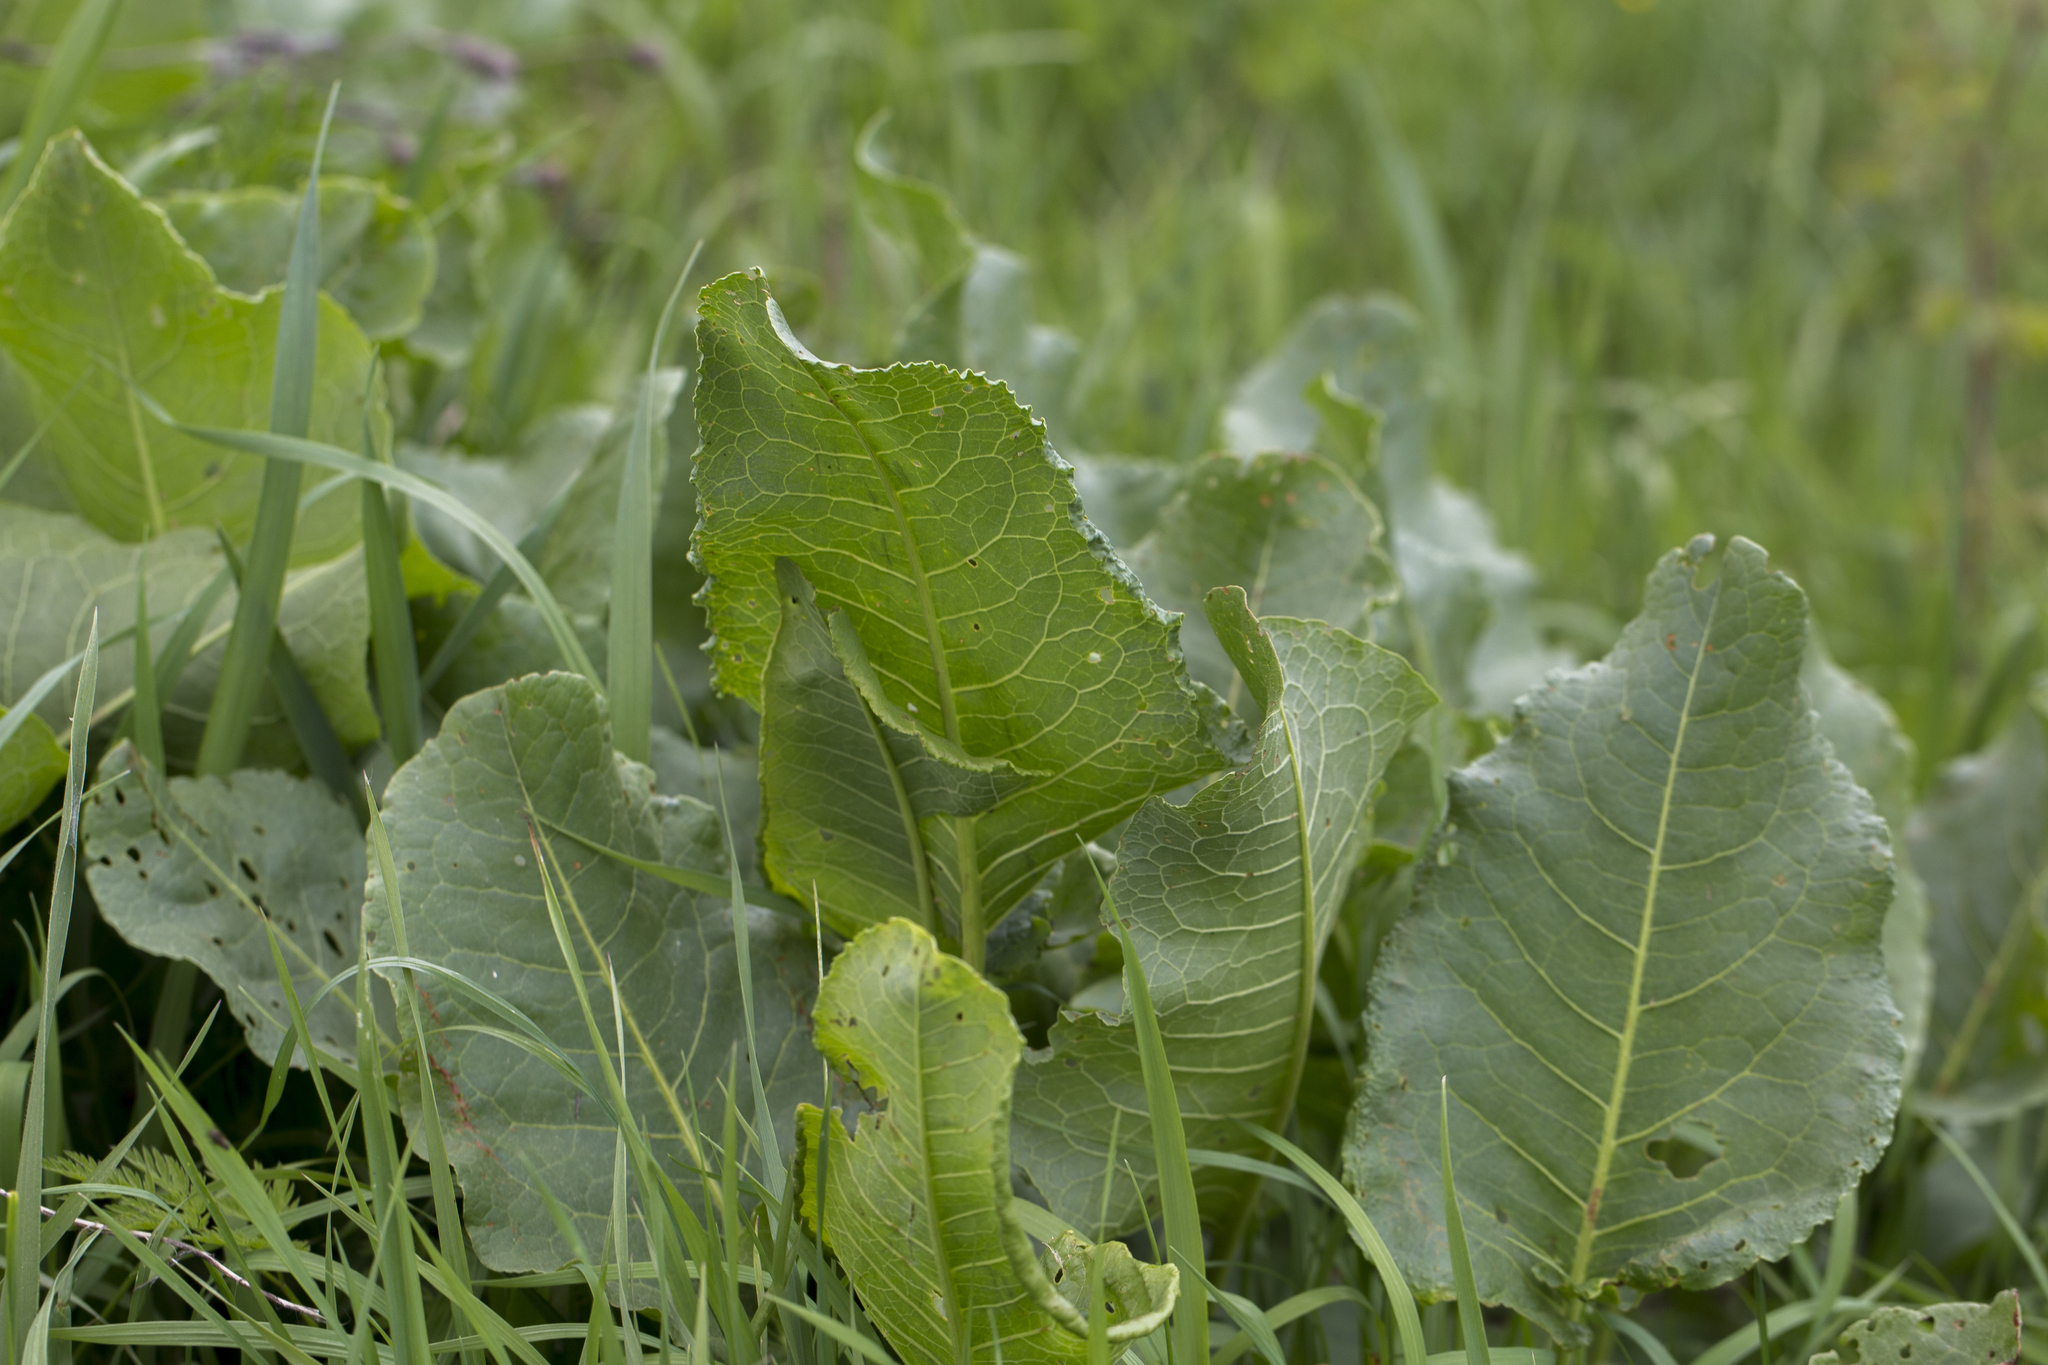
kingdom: Plantae
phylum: Tracheophyta
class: Magnoliopsida
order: Caryophyllales
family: Polygonaceae
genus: Rumex
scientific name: Rumex confertus
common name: Russian dock
